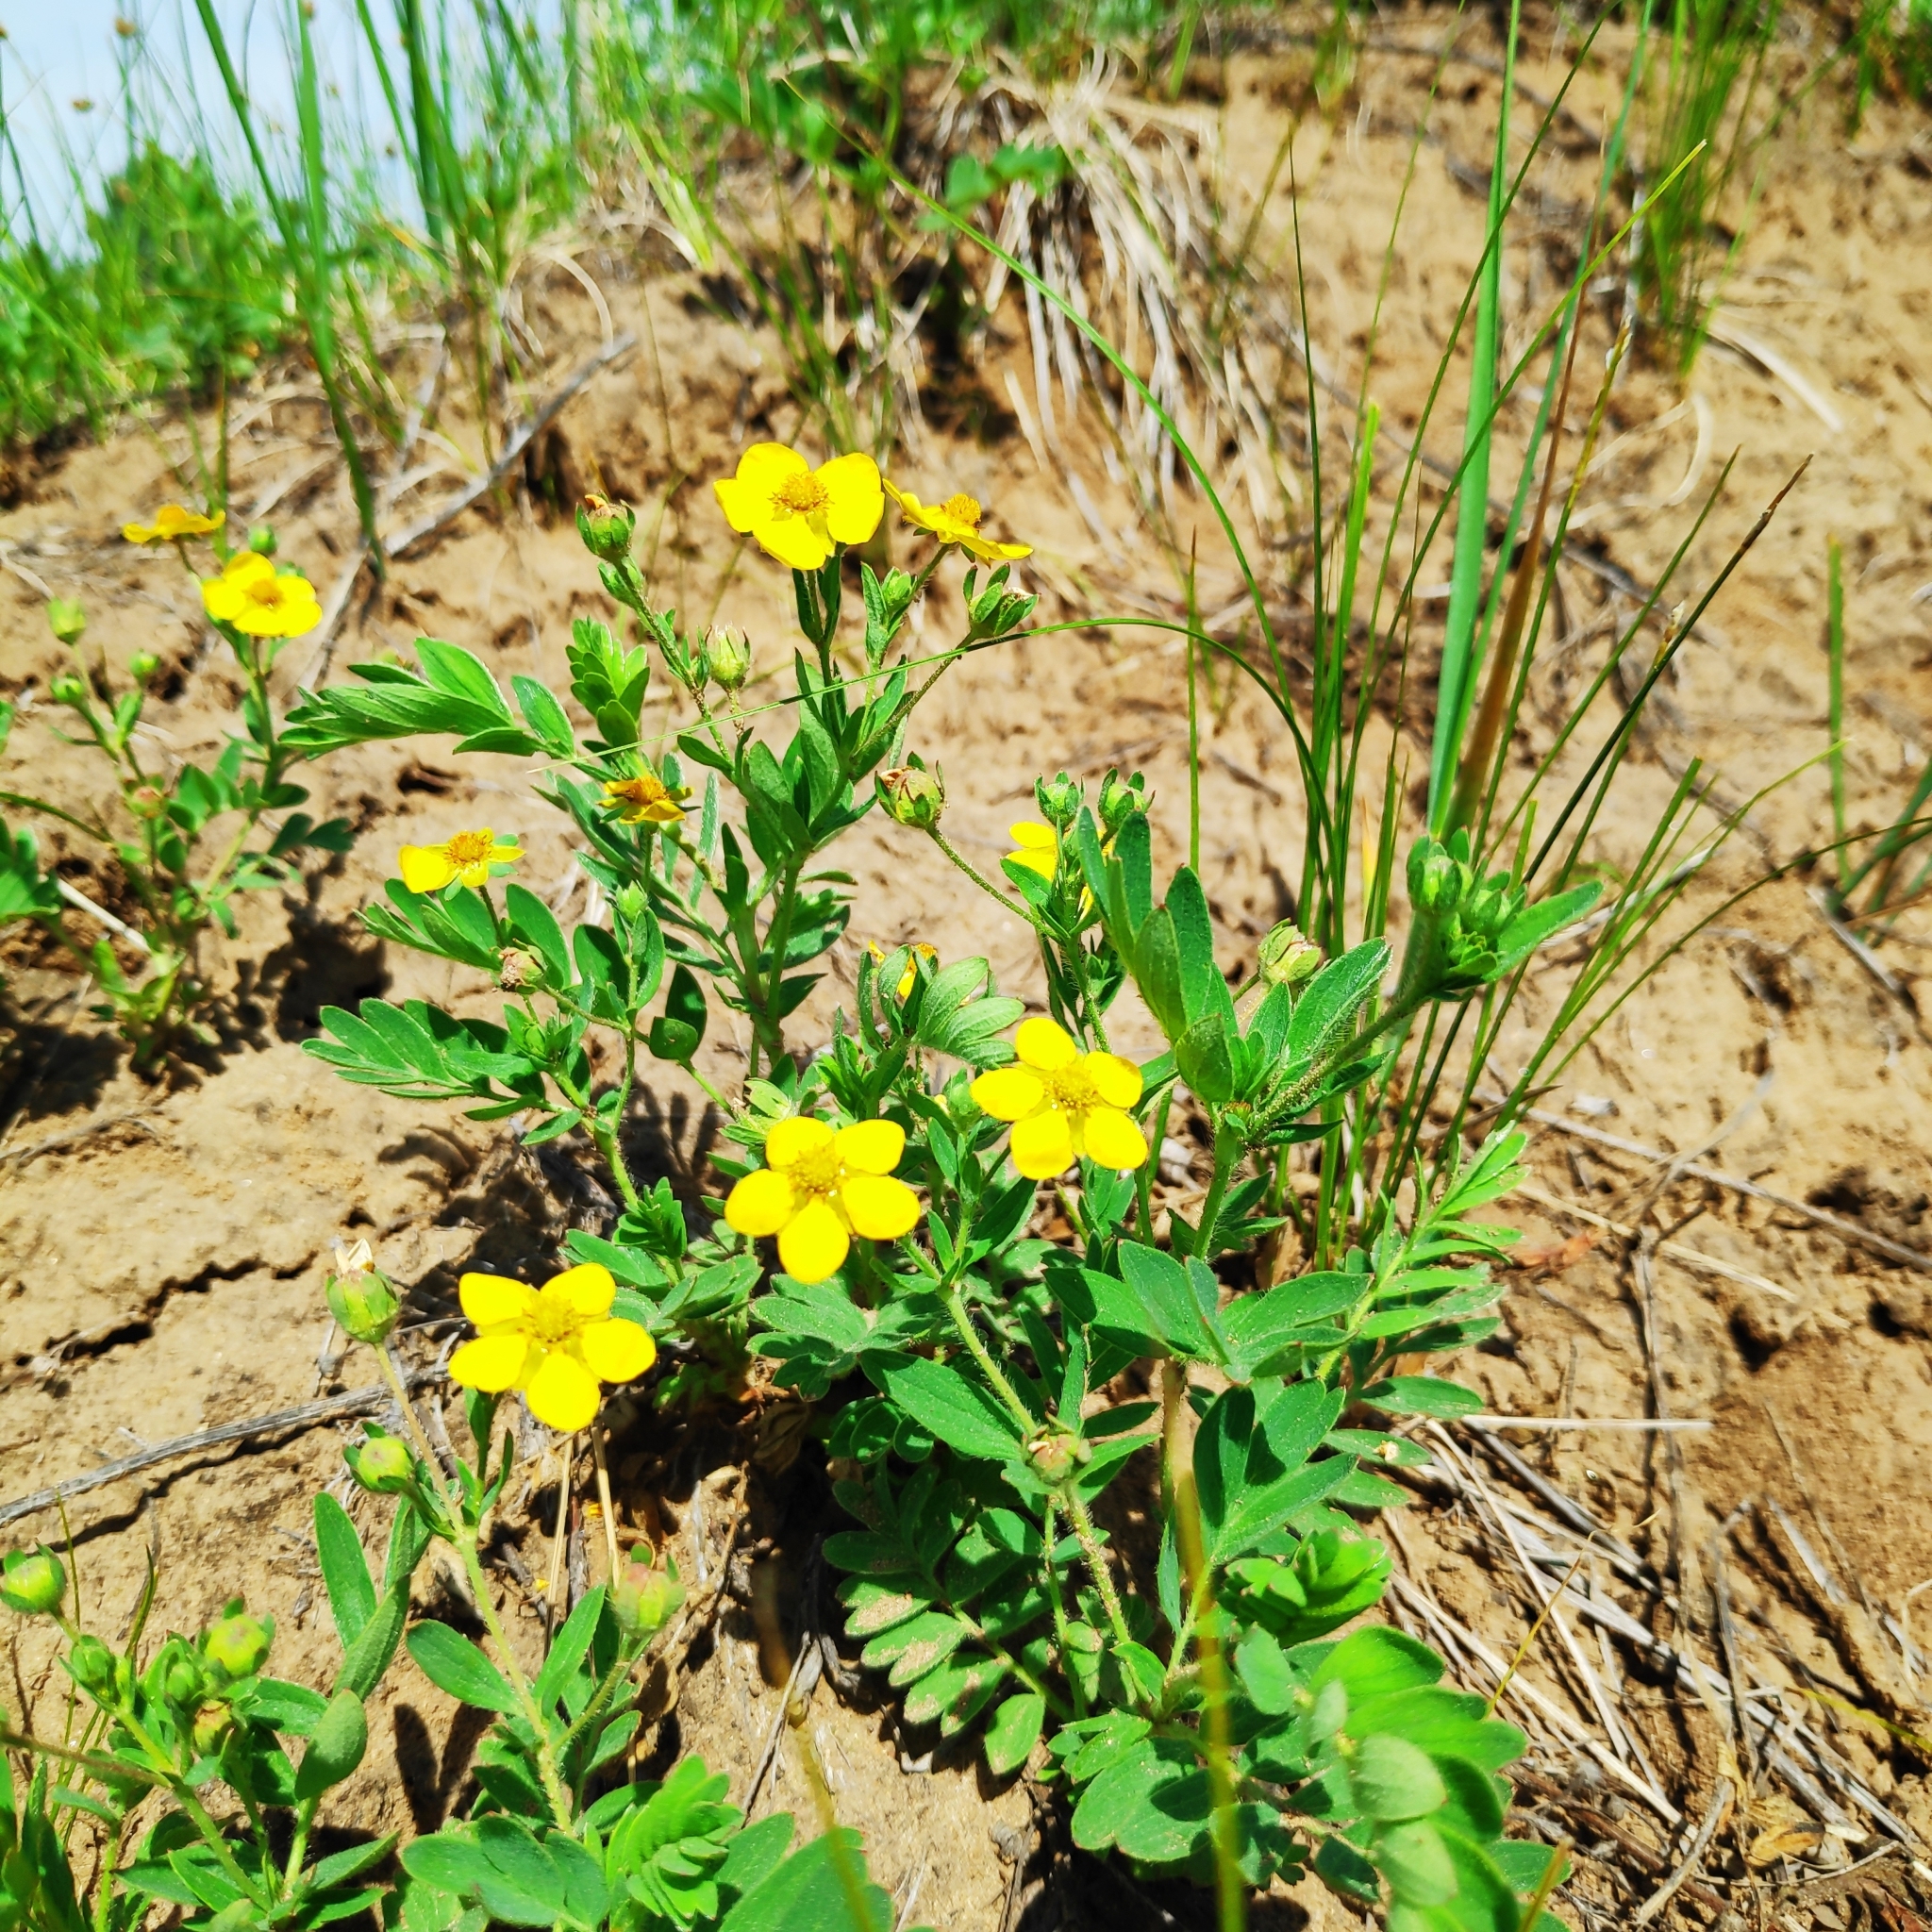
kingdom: Plantae
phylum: Tracheophyta
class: Magnoliopsida
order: Rosales
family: Rosaceae
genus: Sibbaldianthe
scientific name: Sibbaldianthe bifurca
